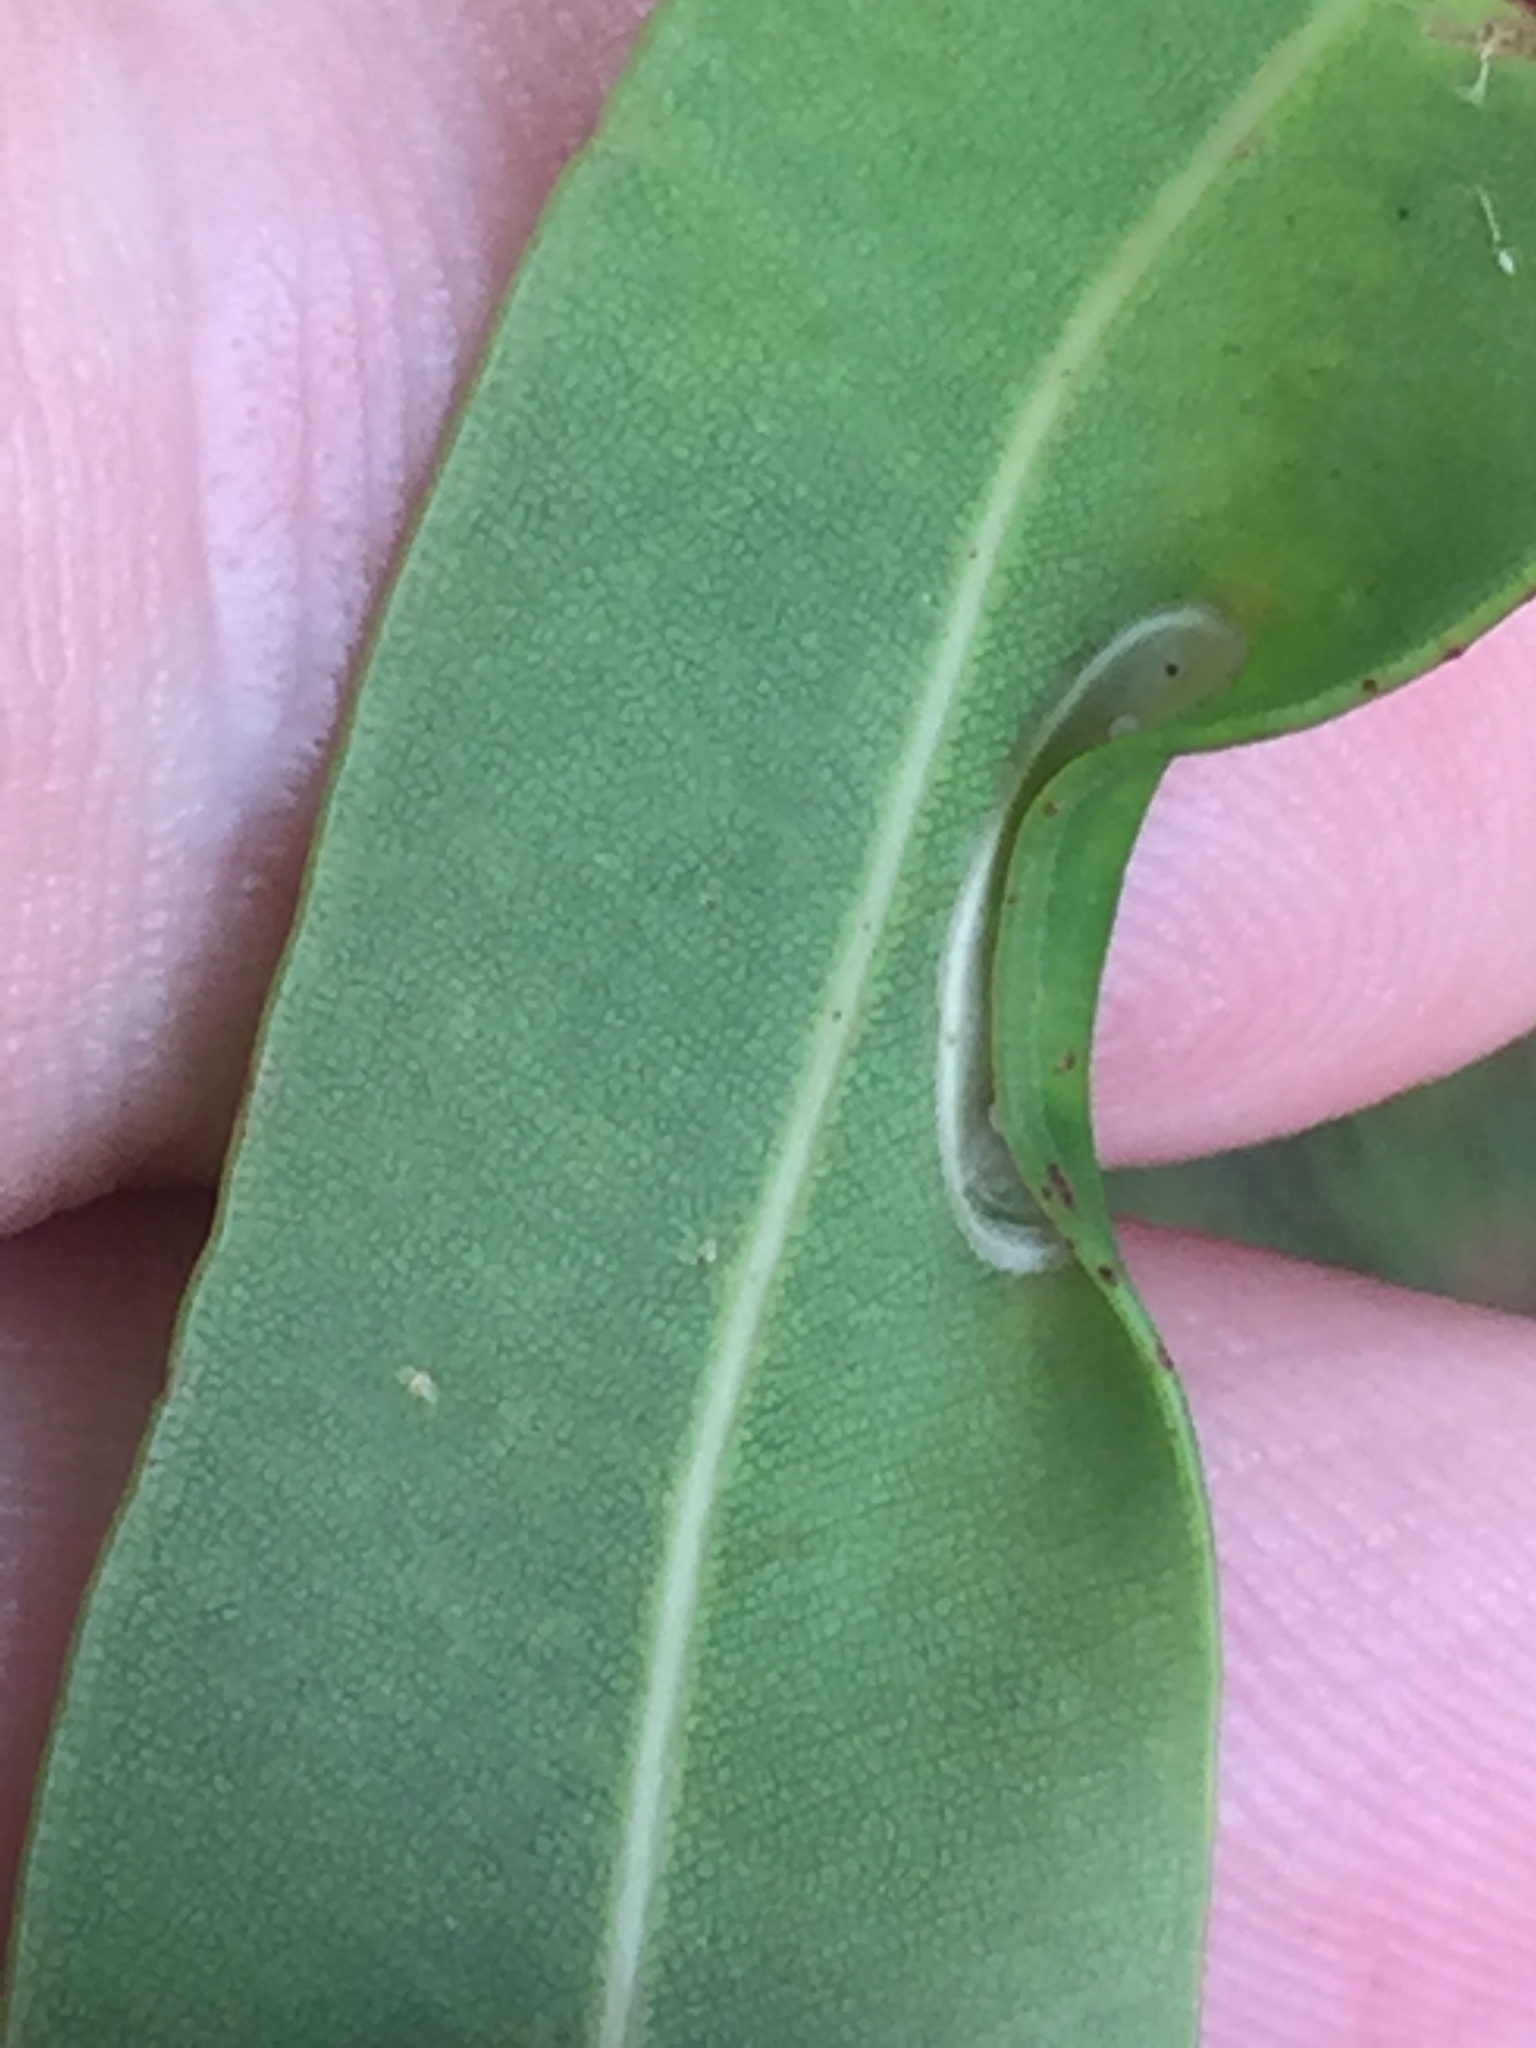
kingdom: Animalia
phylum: Arthropoda
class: Insecta
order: Lepidoptera
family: Gracillariidae
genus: Macarostola
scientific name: Macarostola ida
